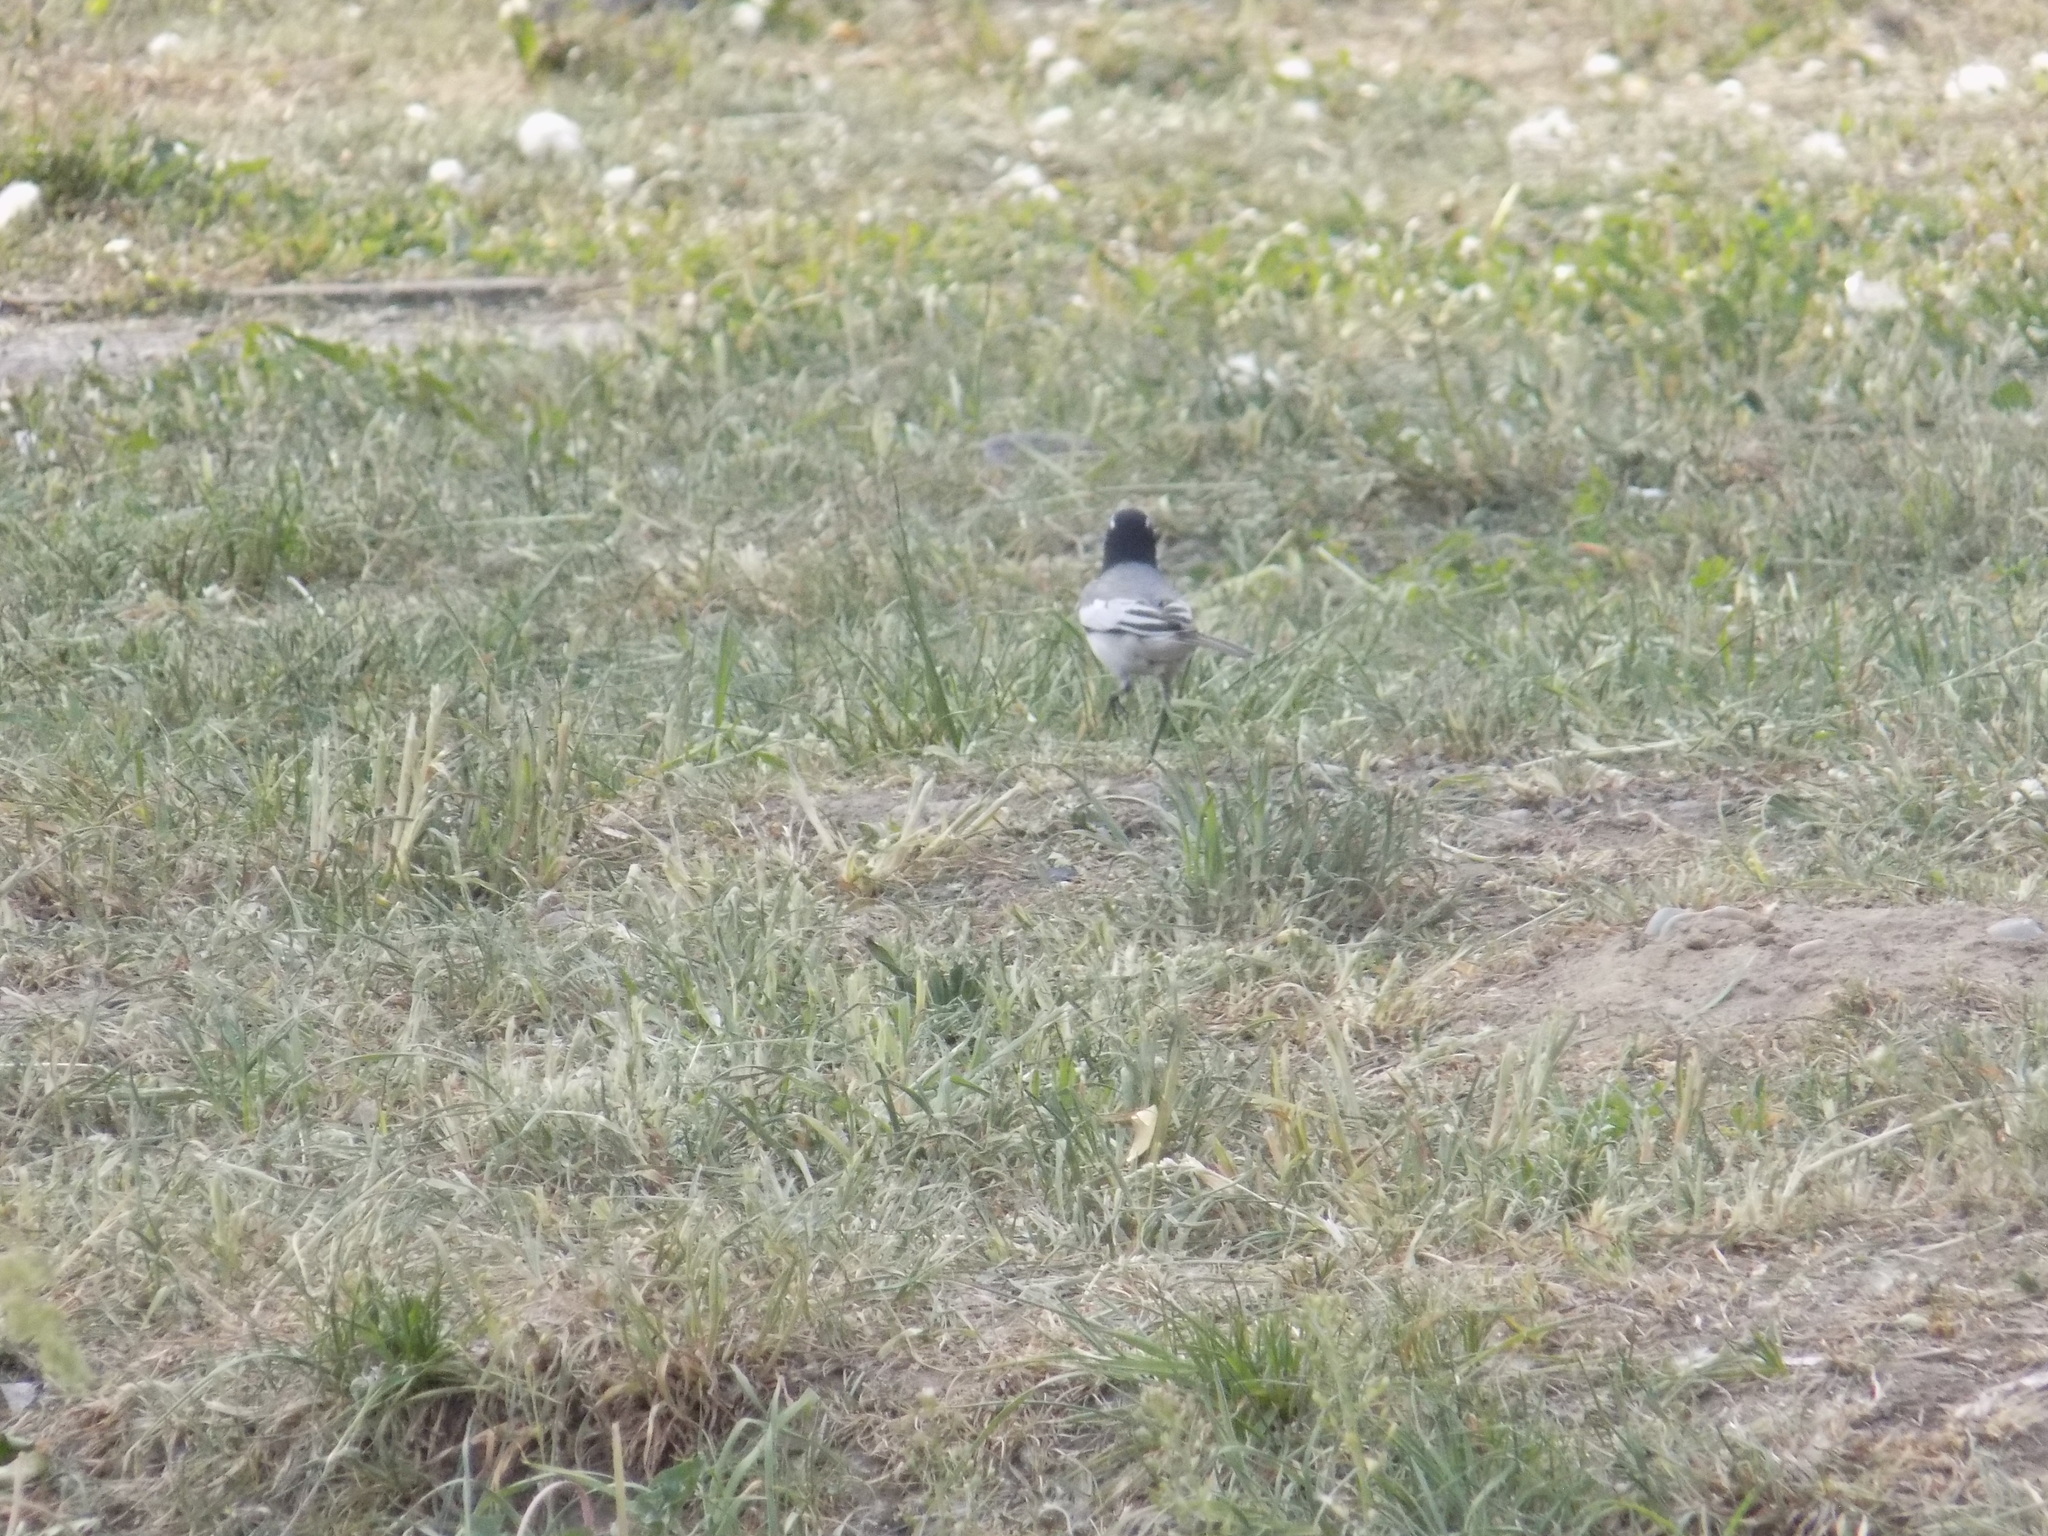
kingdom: Animalia
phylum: Chordata
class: Aves
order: Passeriformes
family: Motacillidae
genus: Motacilla
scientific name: Motacilla alba
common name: White wagtail
